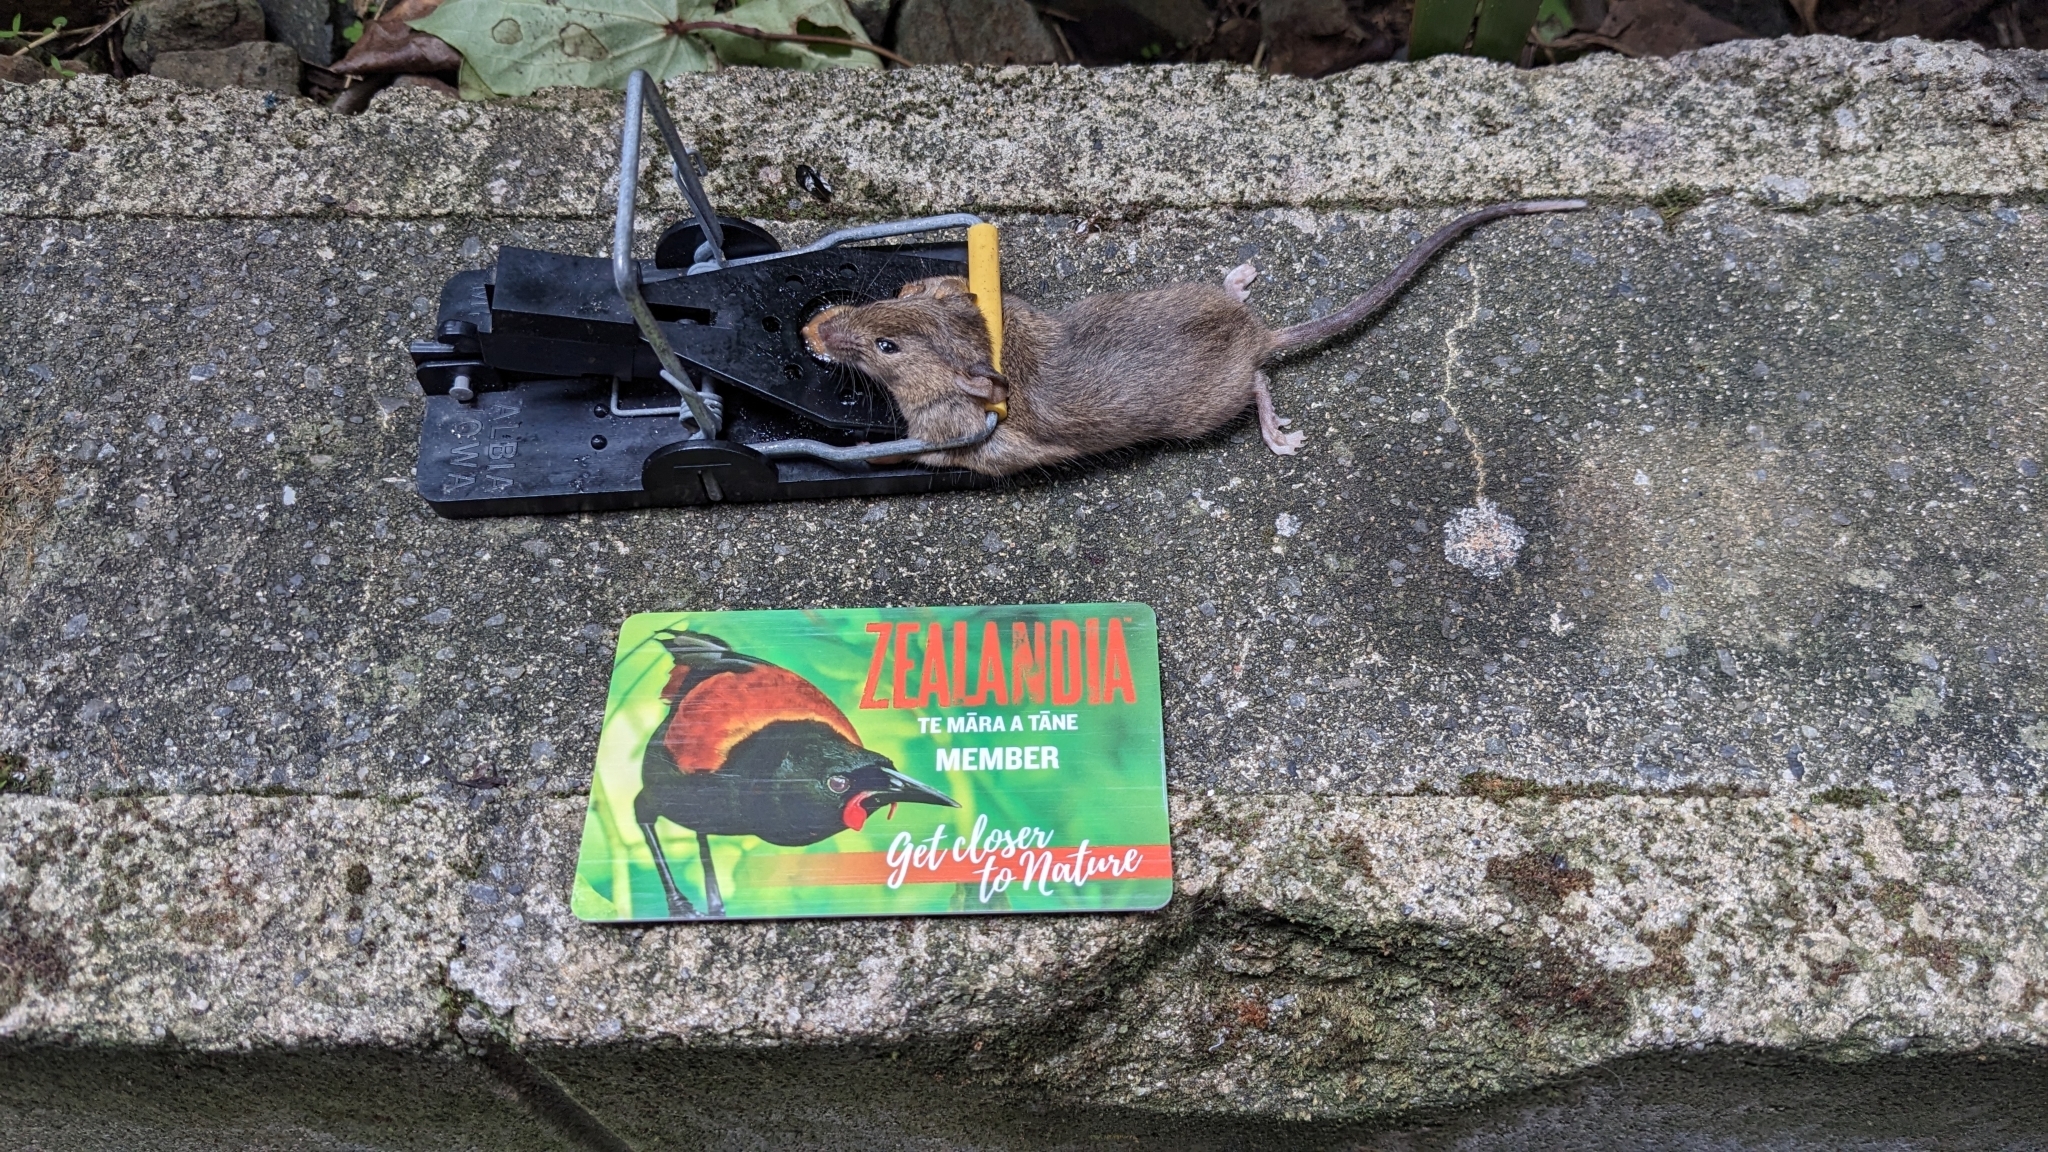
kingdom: Animalia
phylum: Chordata
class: Mammalia
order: Rodentia
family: Muridae
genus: Mus
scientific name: Mus musculus
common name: House mouse
